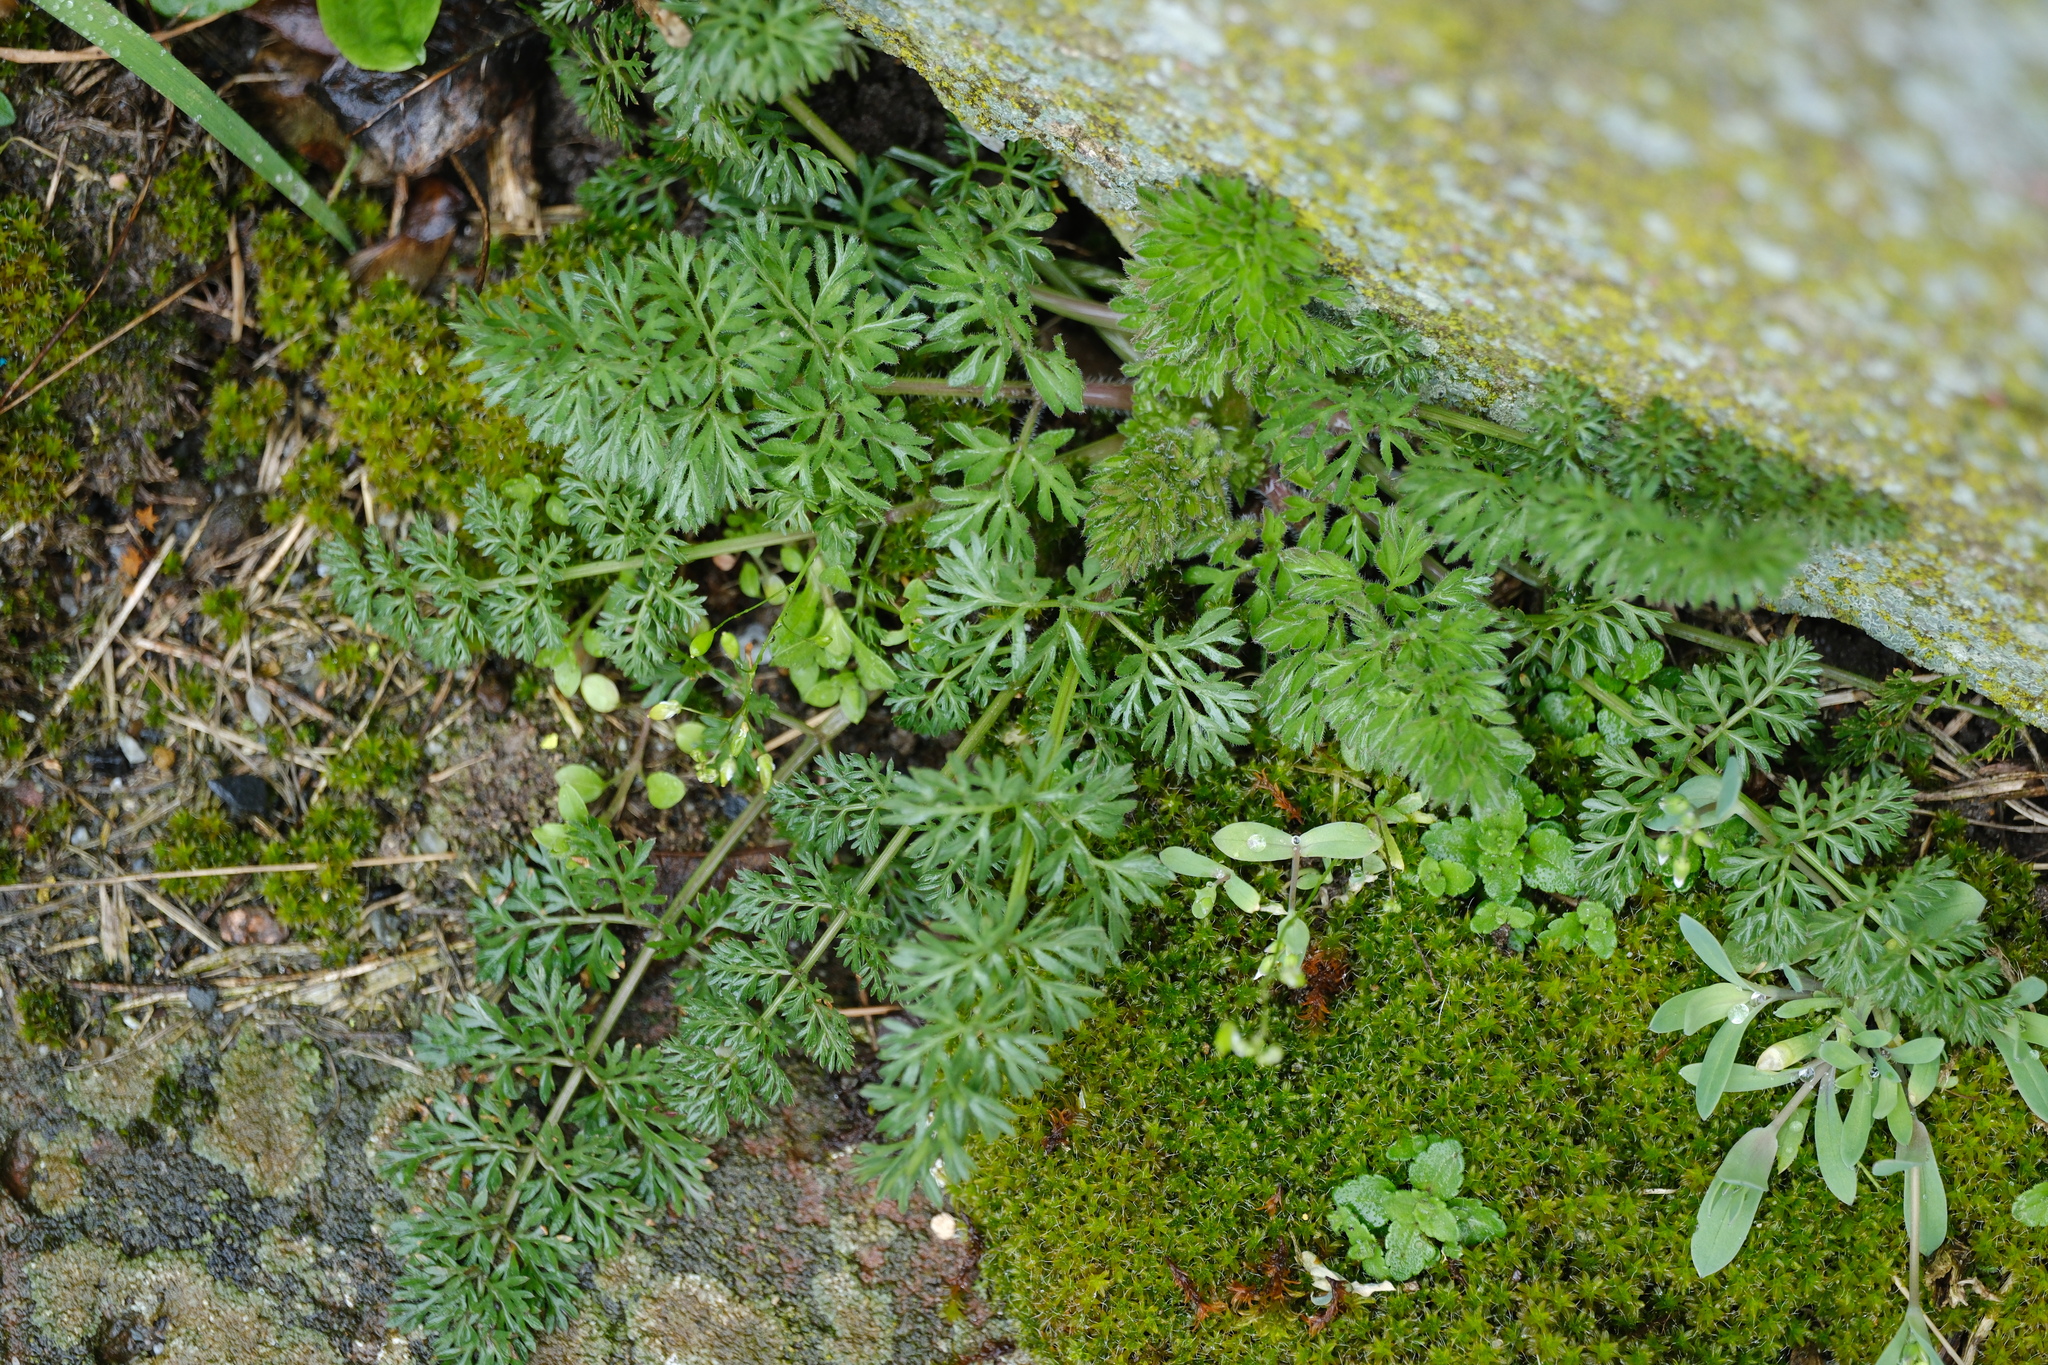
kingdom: Plantae
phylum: Tracheophyta
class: Magnoliopsida
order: Apiales
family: Apiaceae
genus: Daucus
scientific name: Daucus carota
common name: Wild carrot
